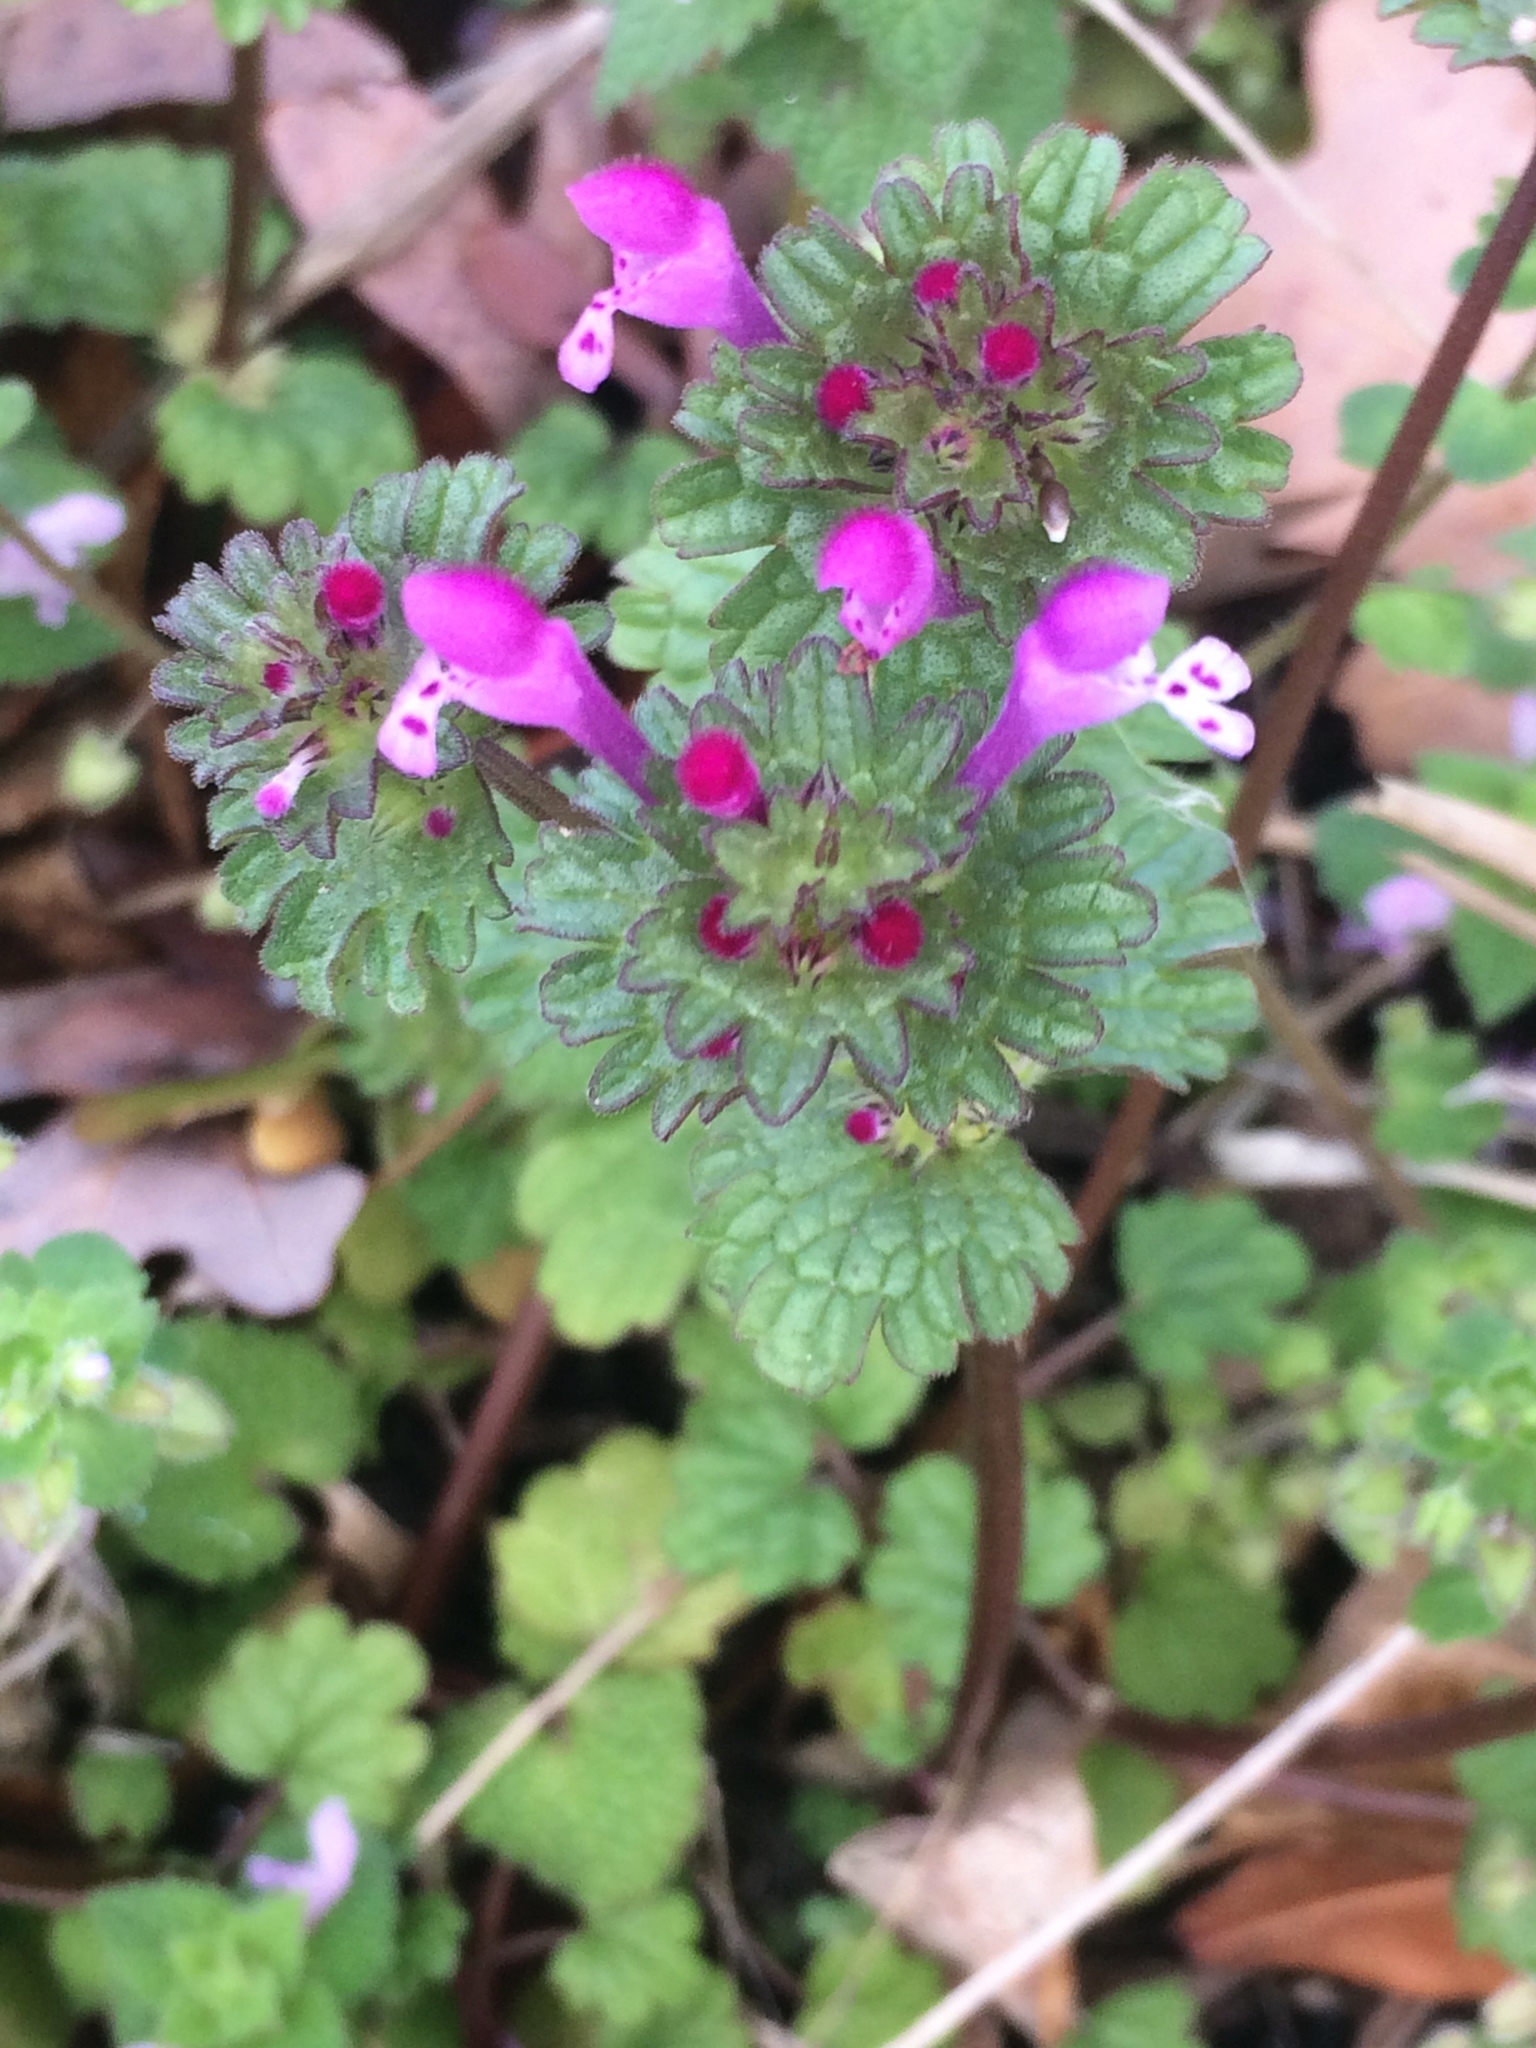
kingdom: Plantae
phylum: Tracheophyta
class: Magnoliopsida
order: Lamiales
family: Lamiaceae
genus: Lamium
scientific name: Lamium amplexicaule
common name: Henbit dead-nettle
